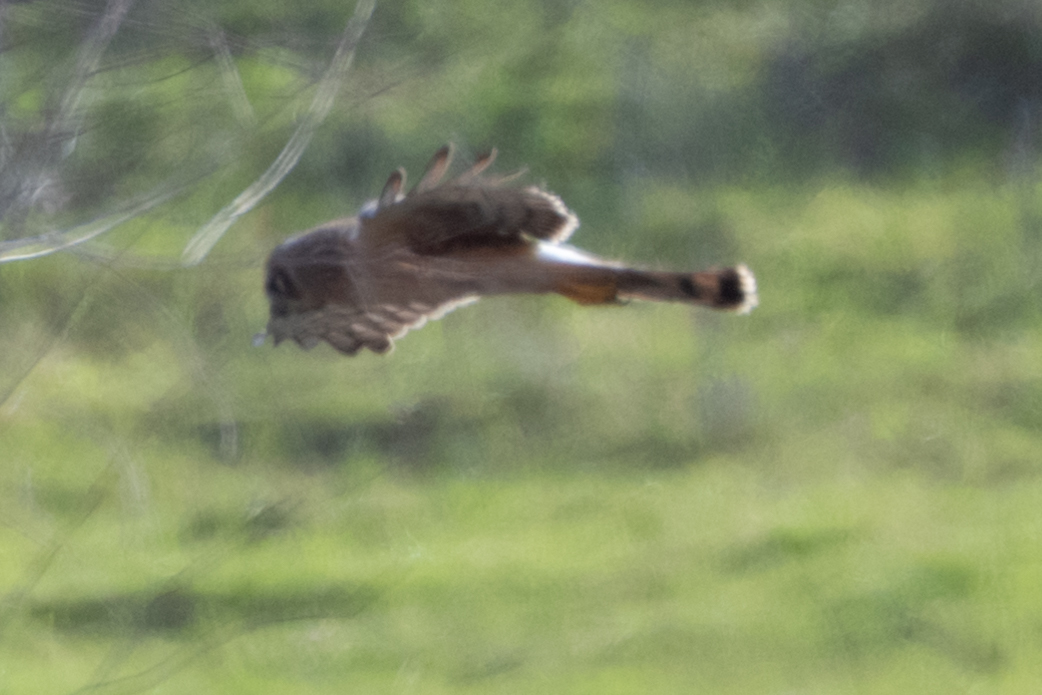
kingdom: Animalia
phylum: Chordata
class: Aves
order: Accipitriformes
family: Accipitridae
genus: Circus
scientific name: Circus cyaneus
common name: Hen harrier
